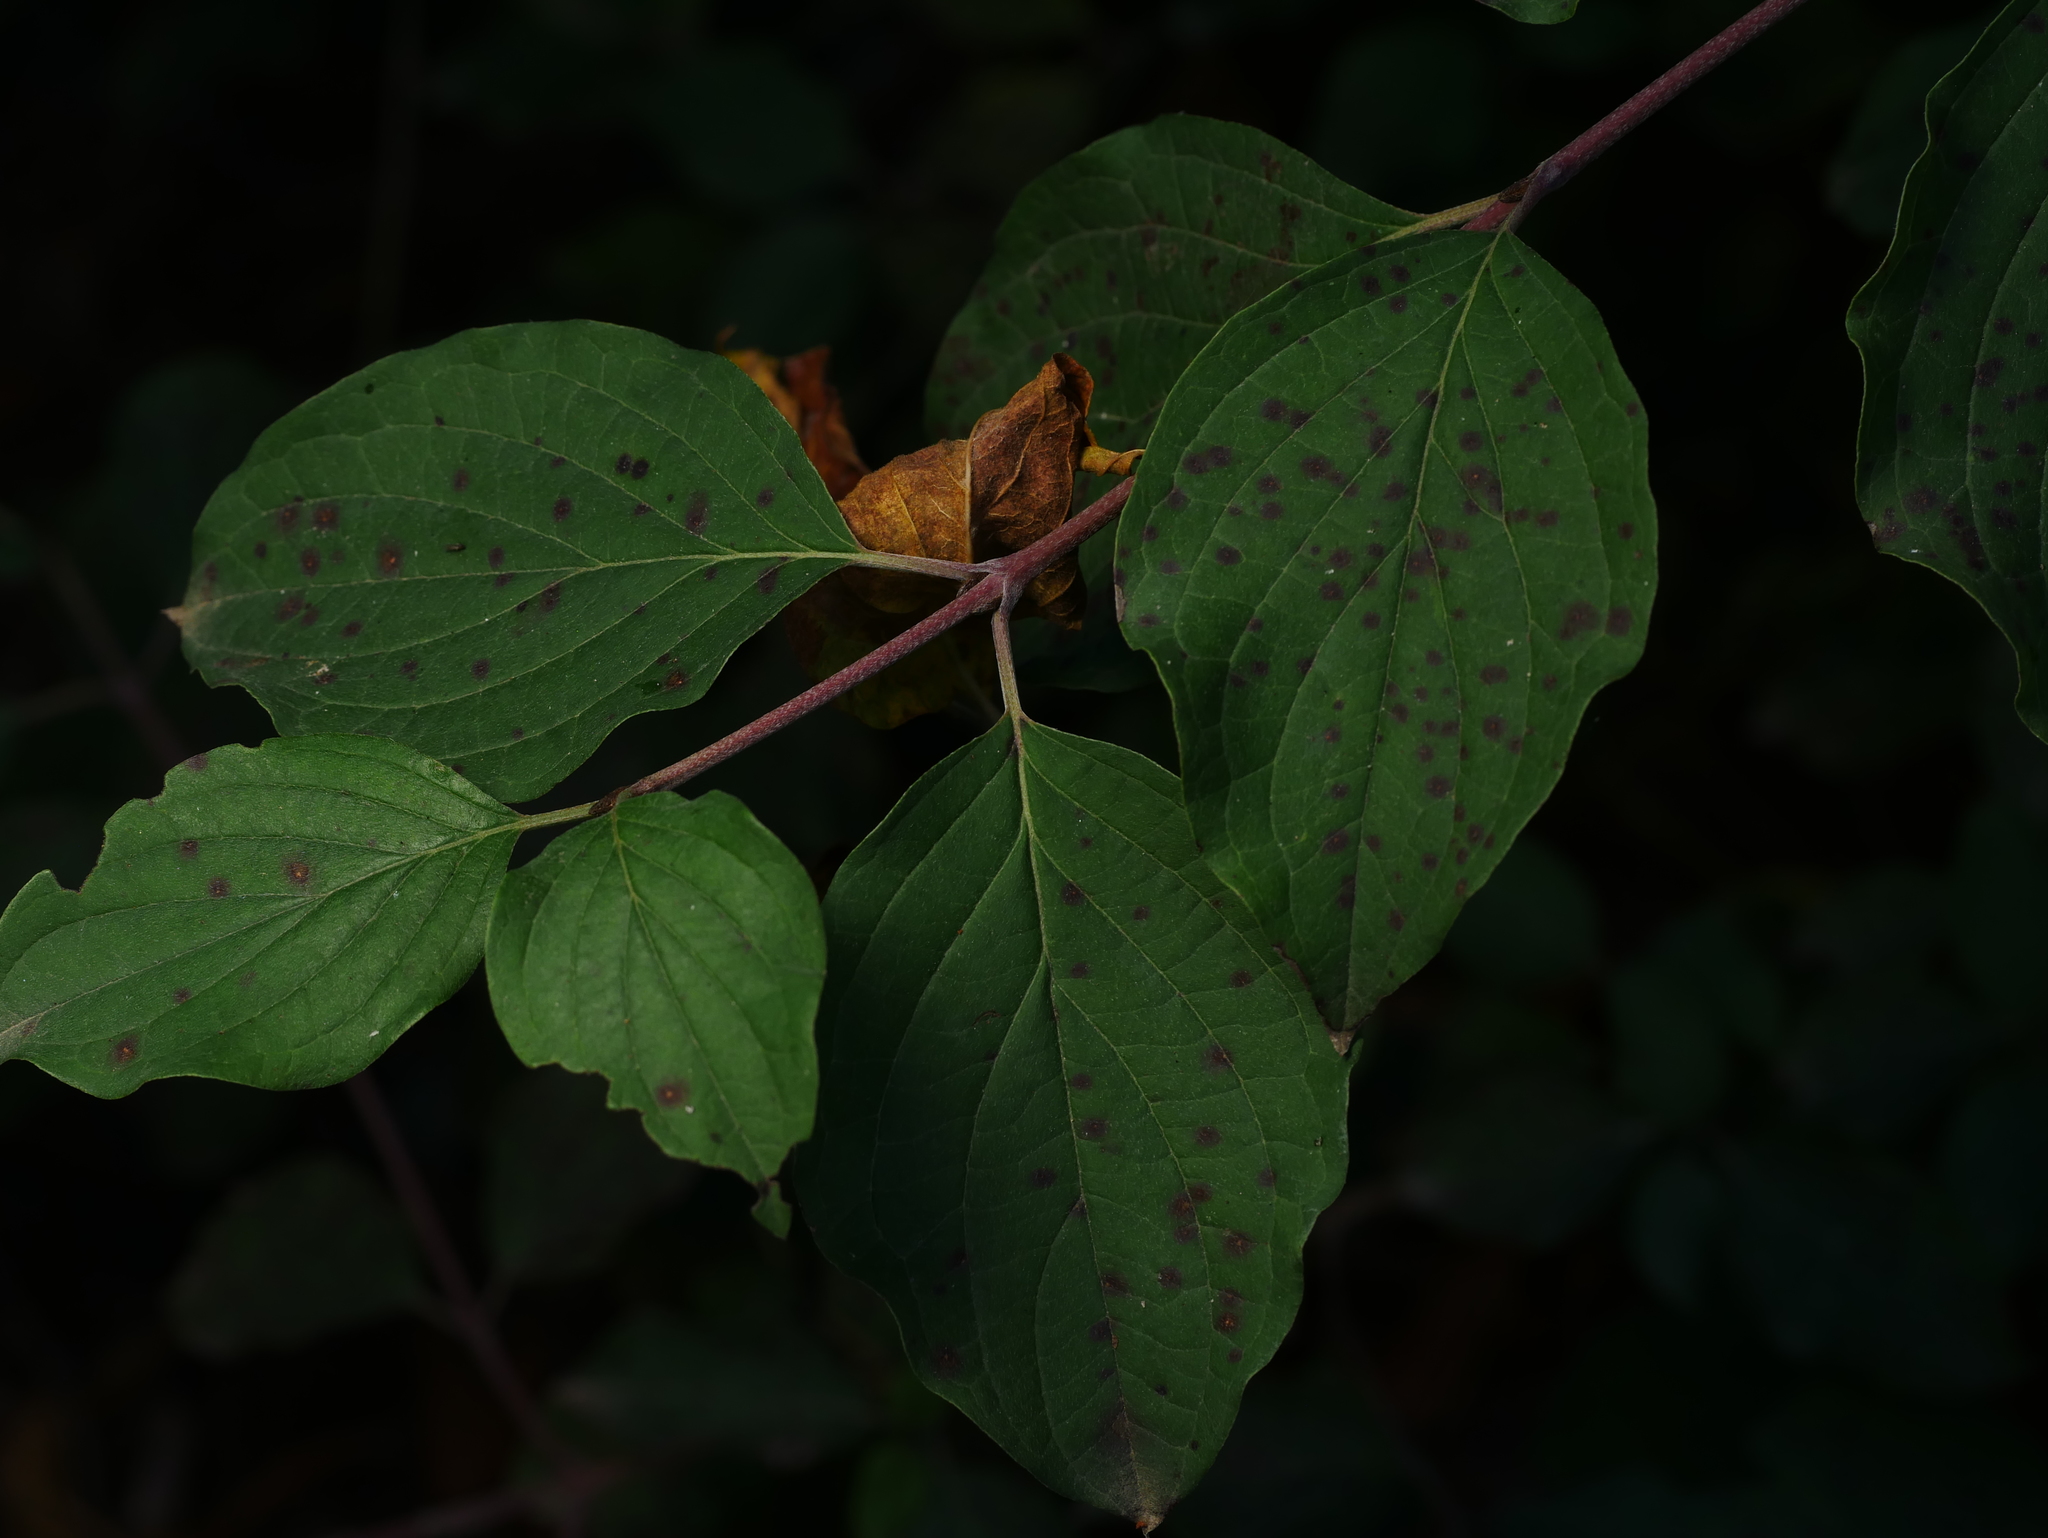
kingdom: Plantae
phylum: Tracheophyta
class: Magnoliopsida
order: Cornales
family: Cornaceae
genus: Cornus
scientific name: Cornus sanguinea
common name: Dogwood
